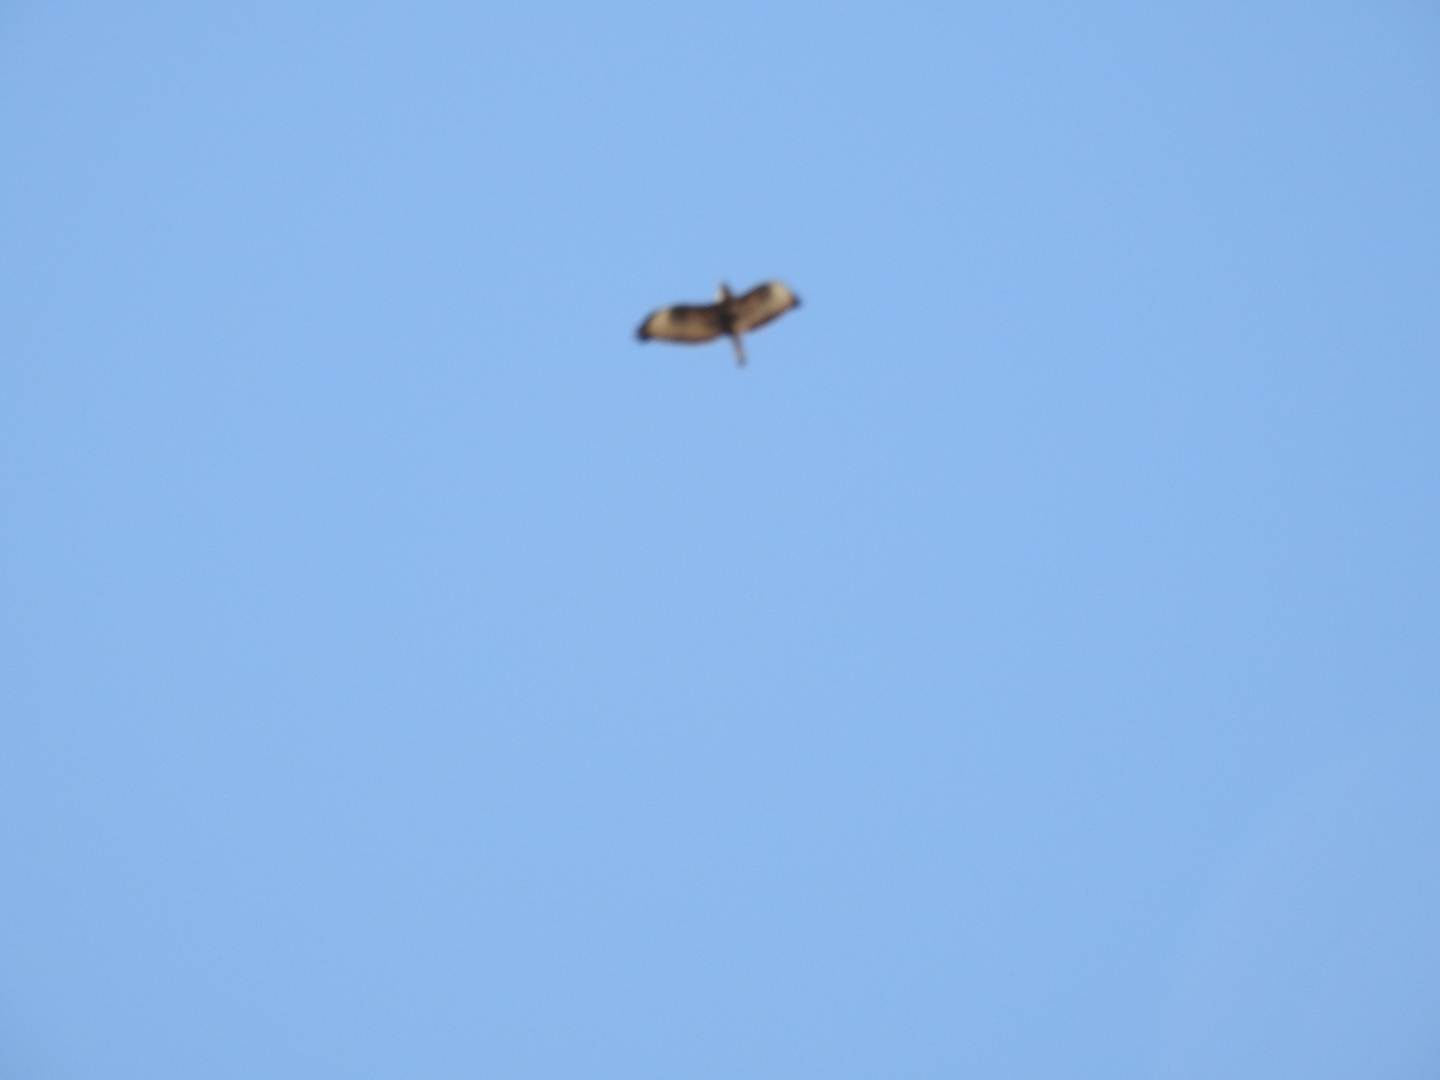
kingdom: Animalia
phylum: Chordata
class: Aves
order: Accipitriformes
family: Accipitridae
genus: Buteo
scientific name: Buteo buteo
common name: Common buzzard
